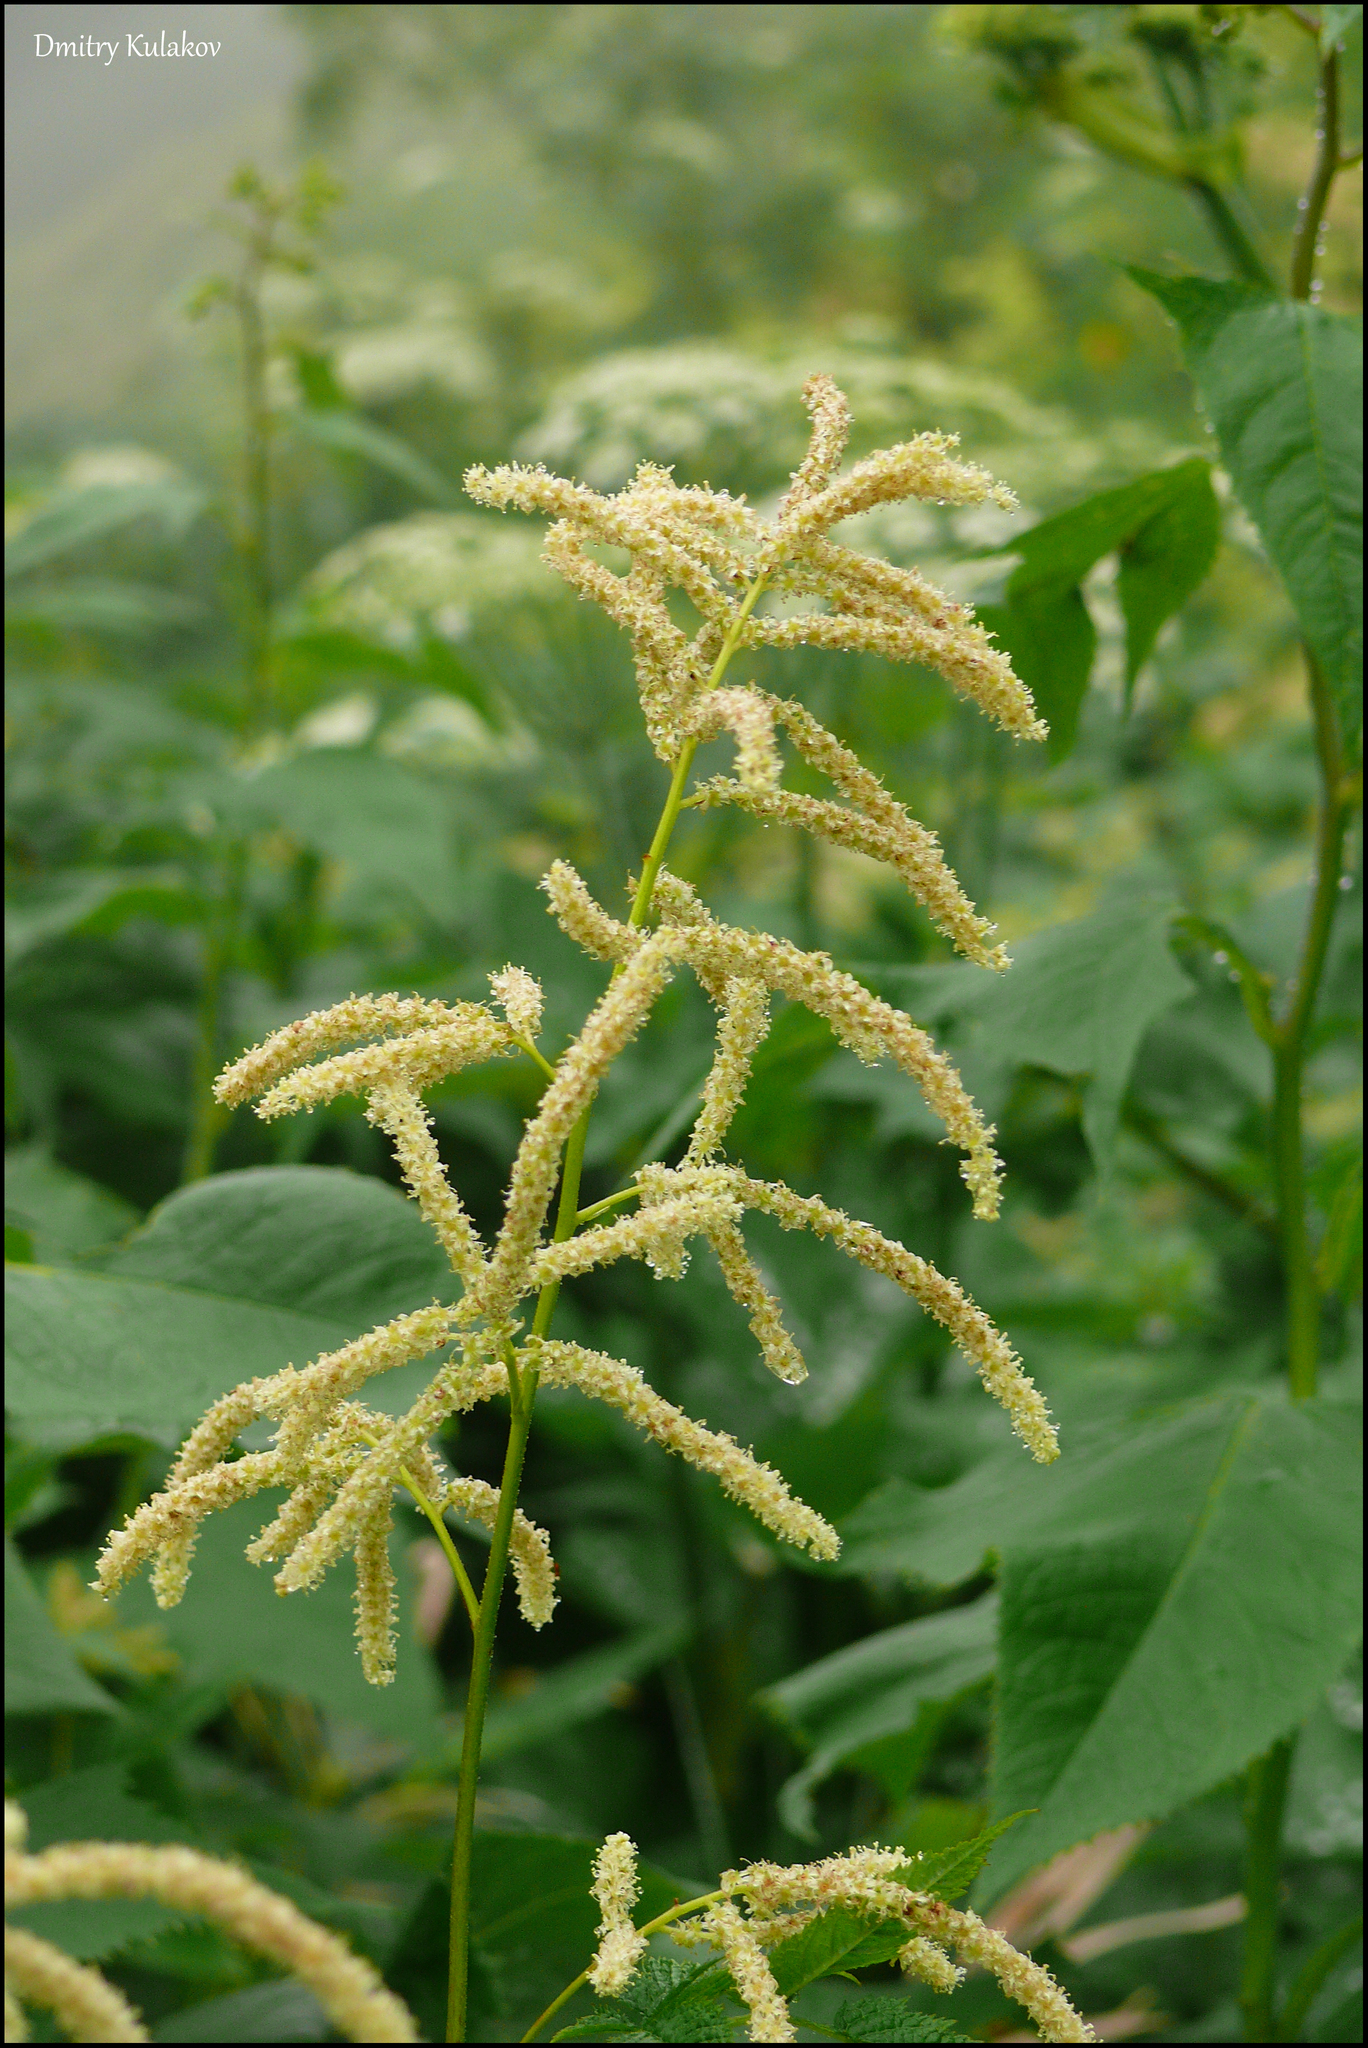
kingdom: Plantae
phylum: Tracheophyta
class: Magnoliopsida
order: Rosales
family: Rosaceae
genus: Aruncus
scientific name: Aruncus dioicus
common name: Buck's-beard
